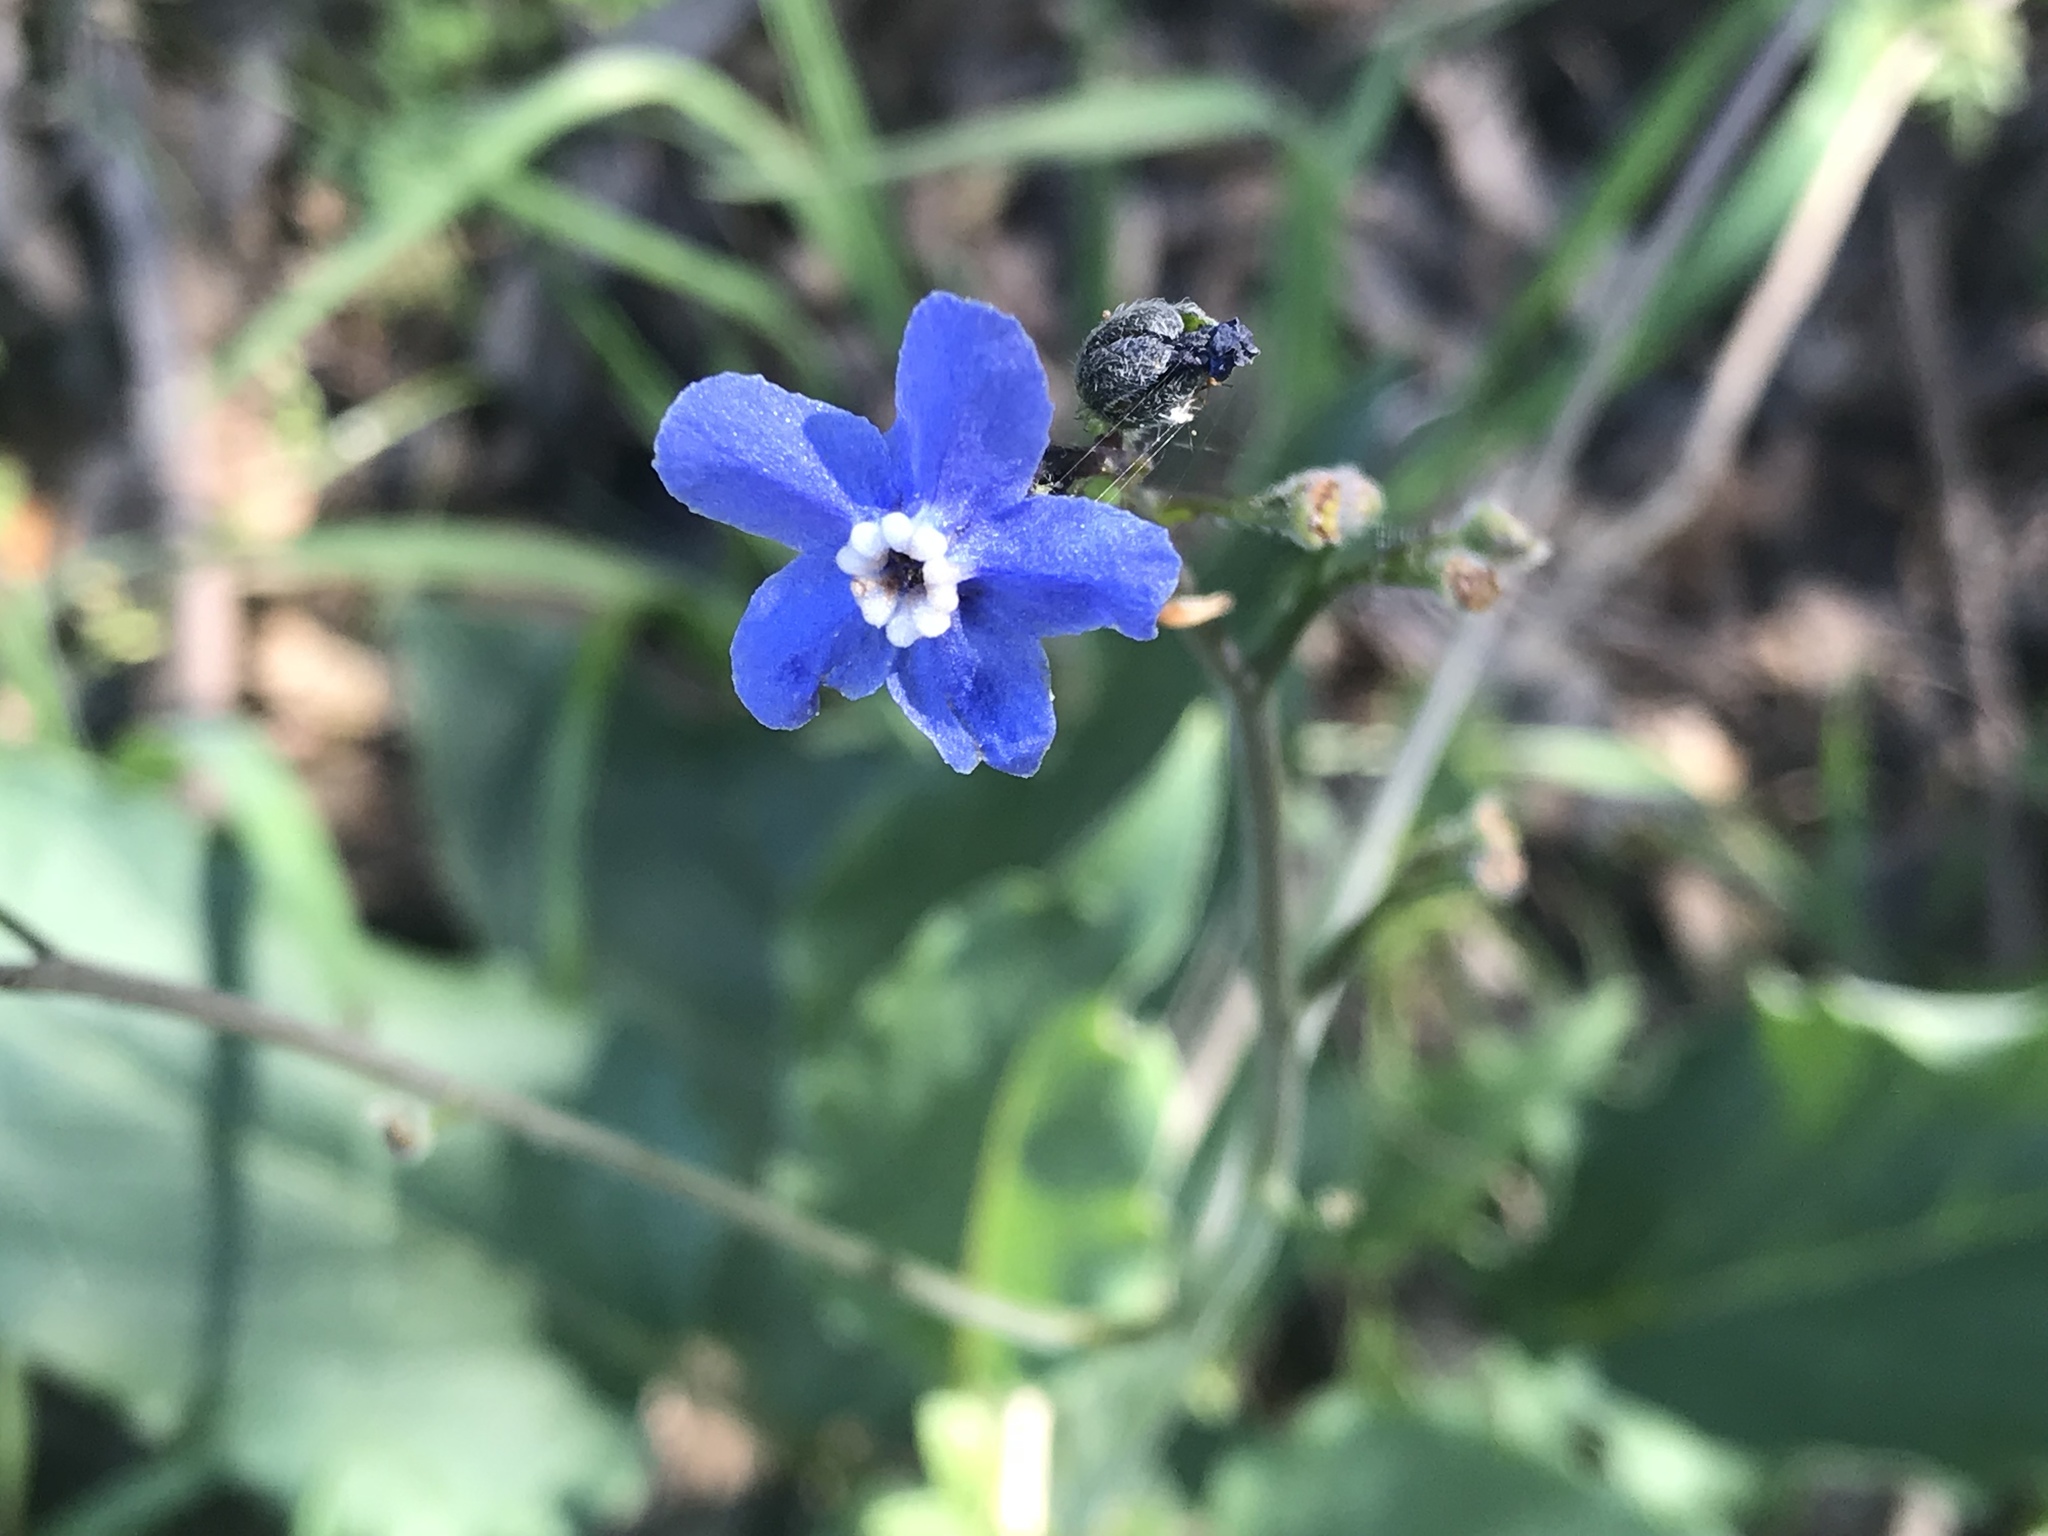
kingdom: Plantae
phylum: Tracheophyta
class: Magnoliopsida
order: Boraginales
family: Boraginaceae
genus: Adelinia
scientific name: Adelinia grande
